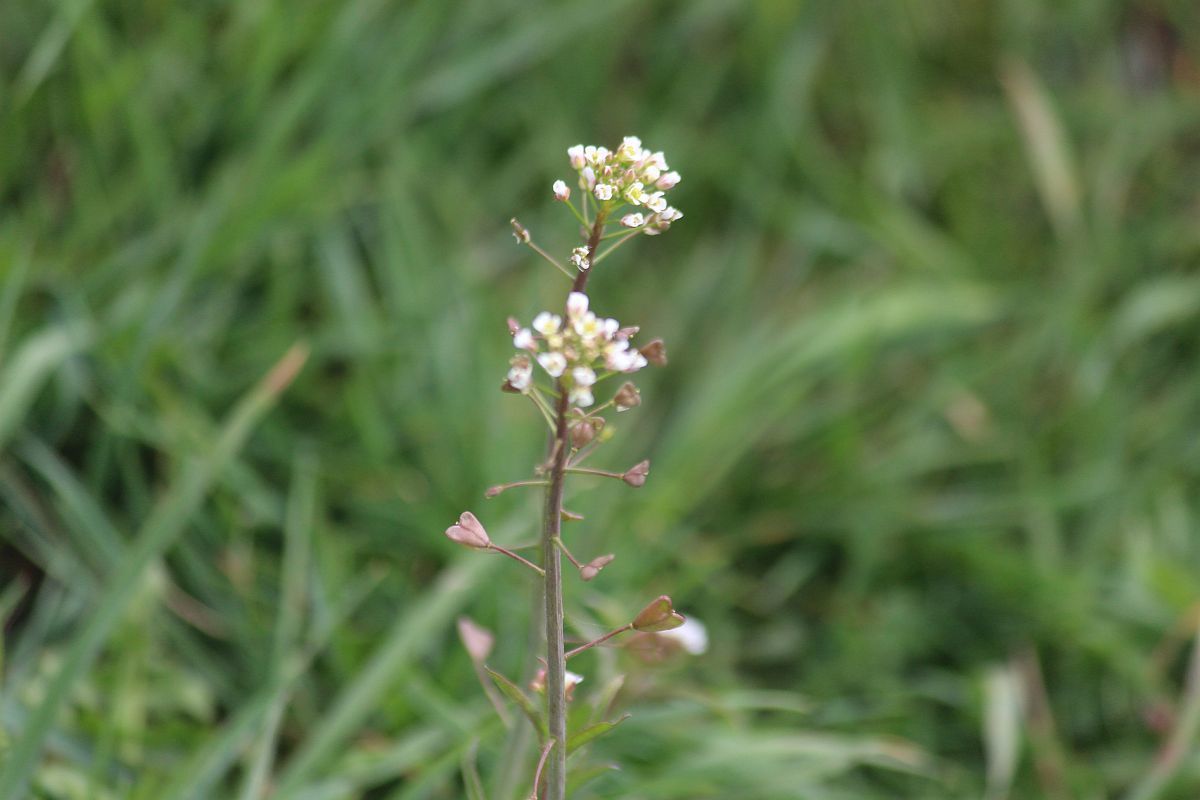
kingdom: Plantae
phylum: Tracheophyta
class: Magnoliopsida
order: Brassicales
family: Brassicaceae
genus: Capsella
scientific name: Capsella bursa-pastoris
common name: Shepherd's purse
